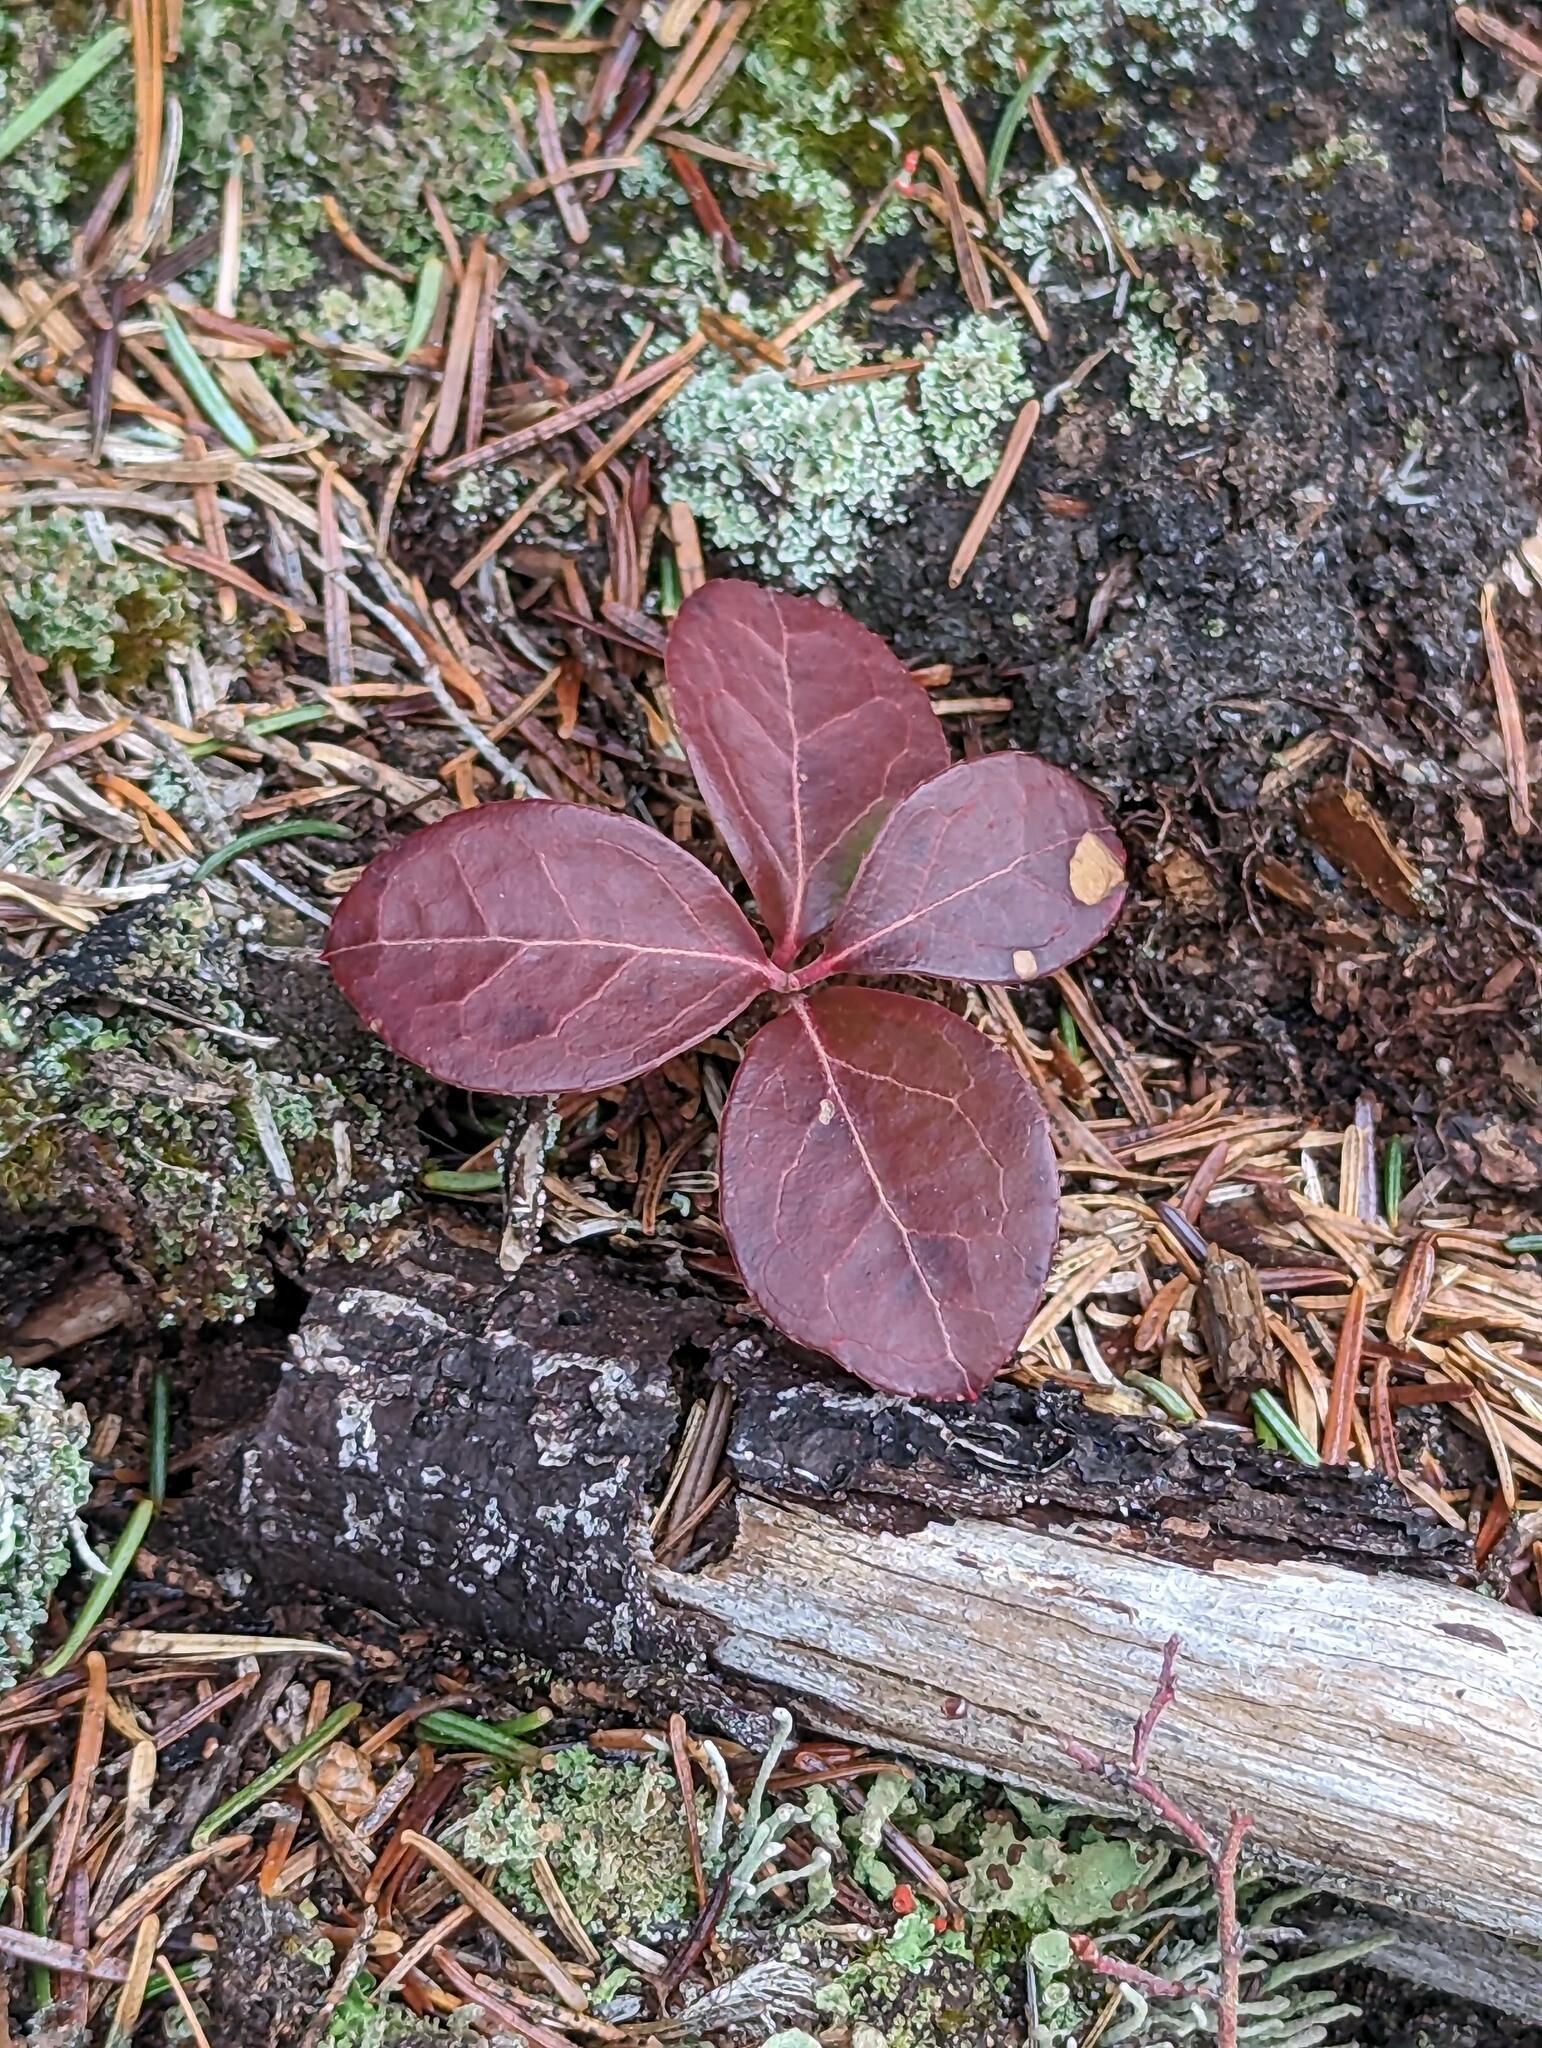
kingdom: Plantae
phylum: Tracheophyta
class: Magnoliopsida
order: Ericales
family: Ericaceae
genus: Gaultheria
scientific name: Gaultheria procumbens
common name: Checkerberry
